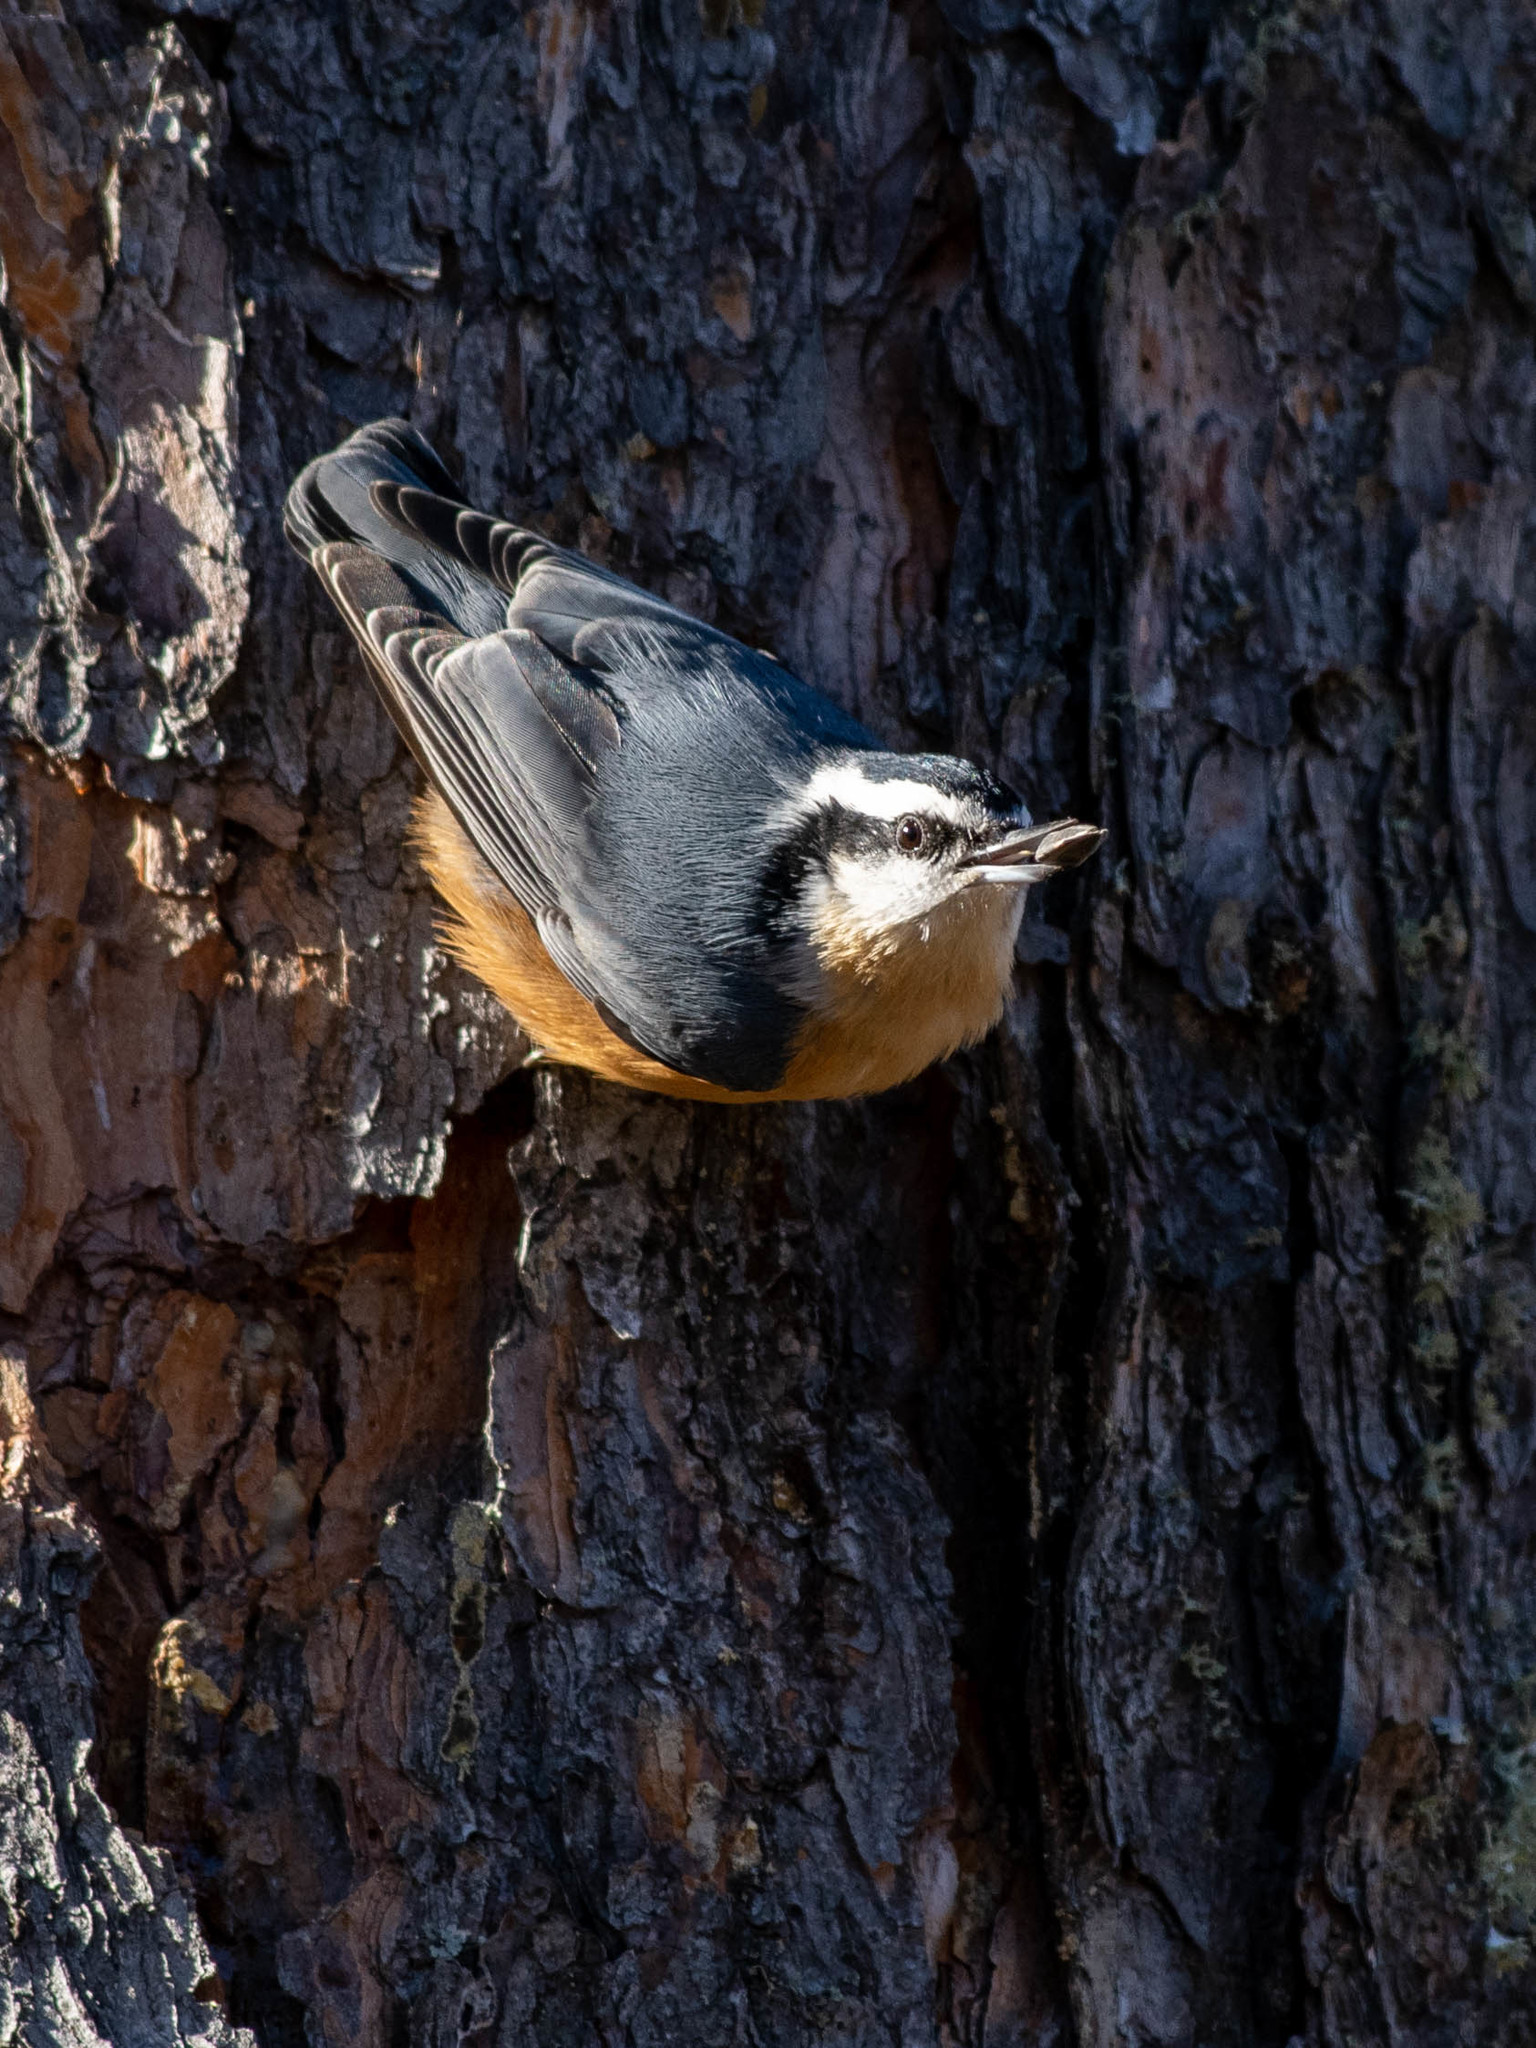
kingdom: Animalia
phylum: Chordata
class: Aves
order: Passeriformes
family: Sittidae
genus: Sitta
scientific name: Sitta canadensis
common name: Red-breasted nuthatch
